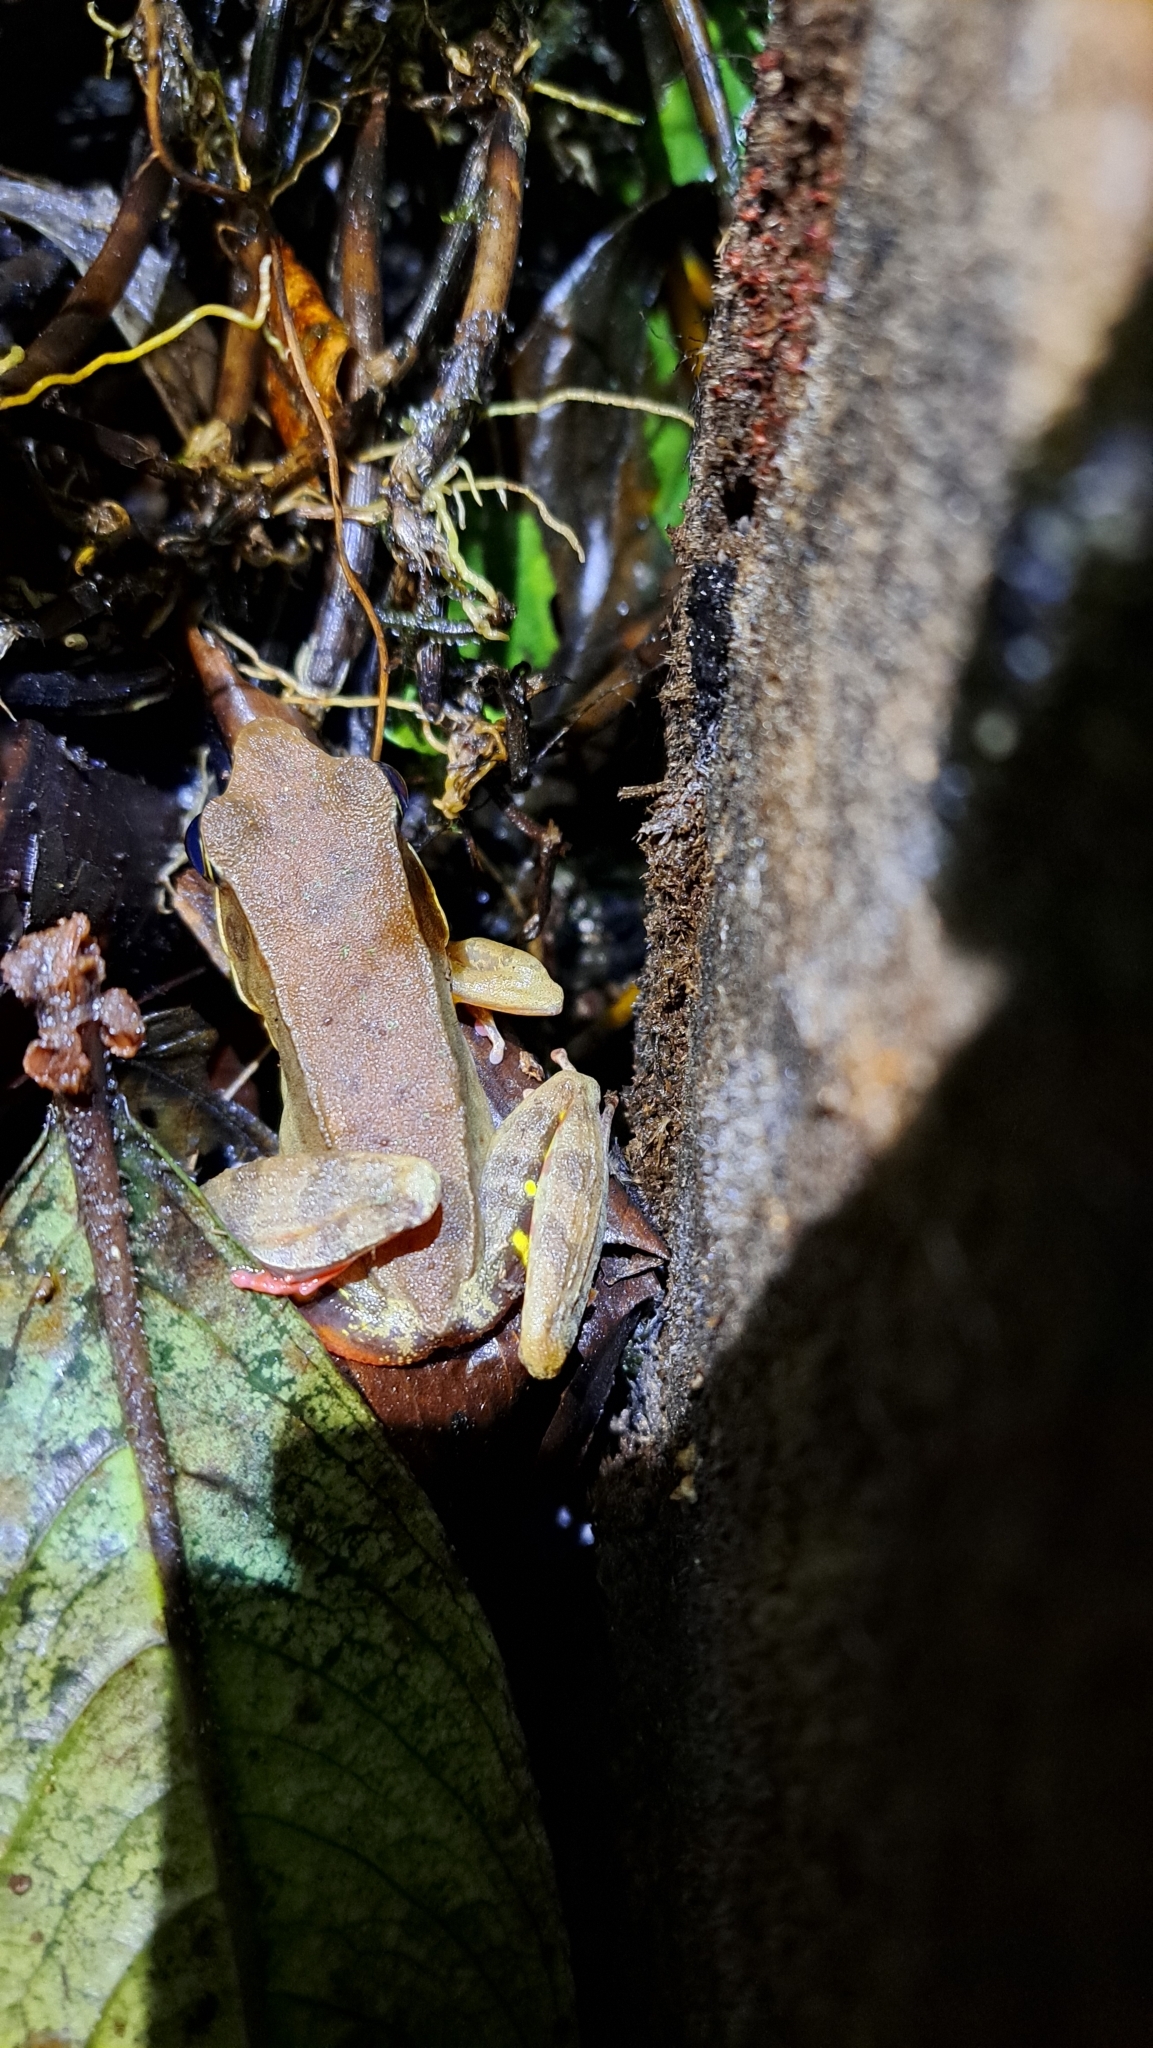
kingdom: Animalia
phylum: Chordata
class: Amphibia
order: Anura
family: Ranidae
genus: Lithobates
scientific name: Lithobates warszewitschii
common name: Warszewitsch's frog
